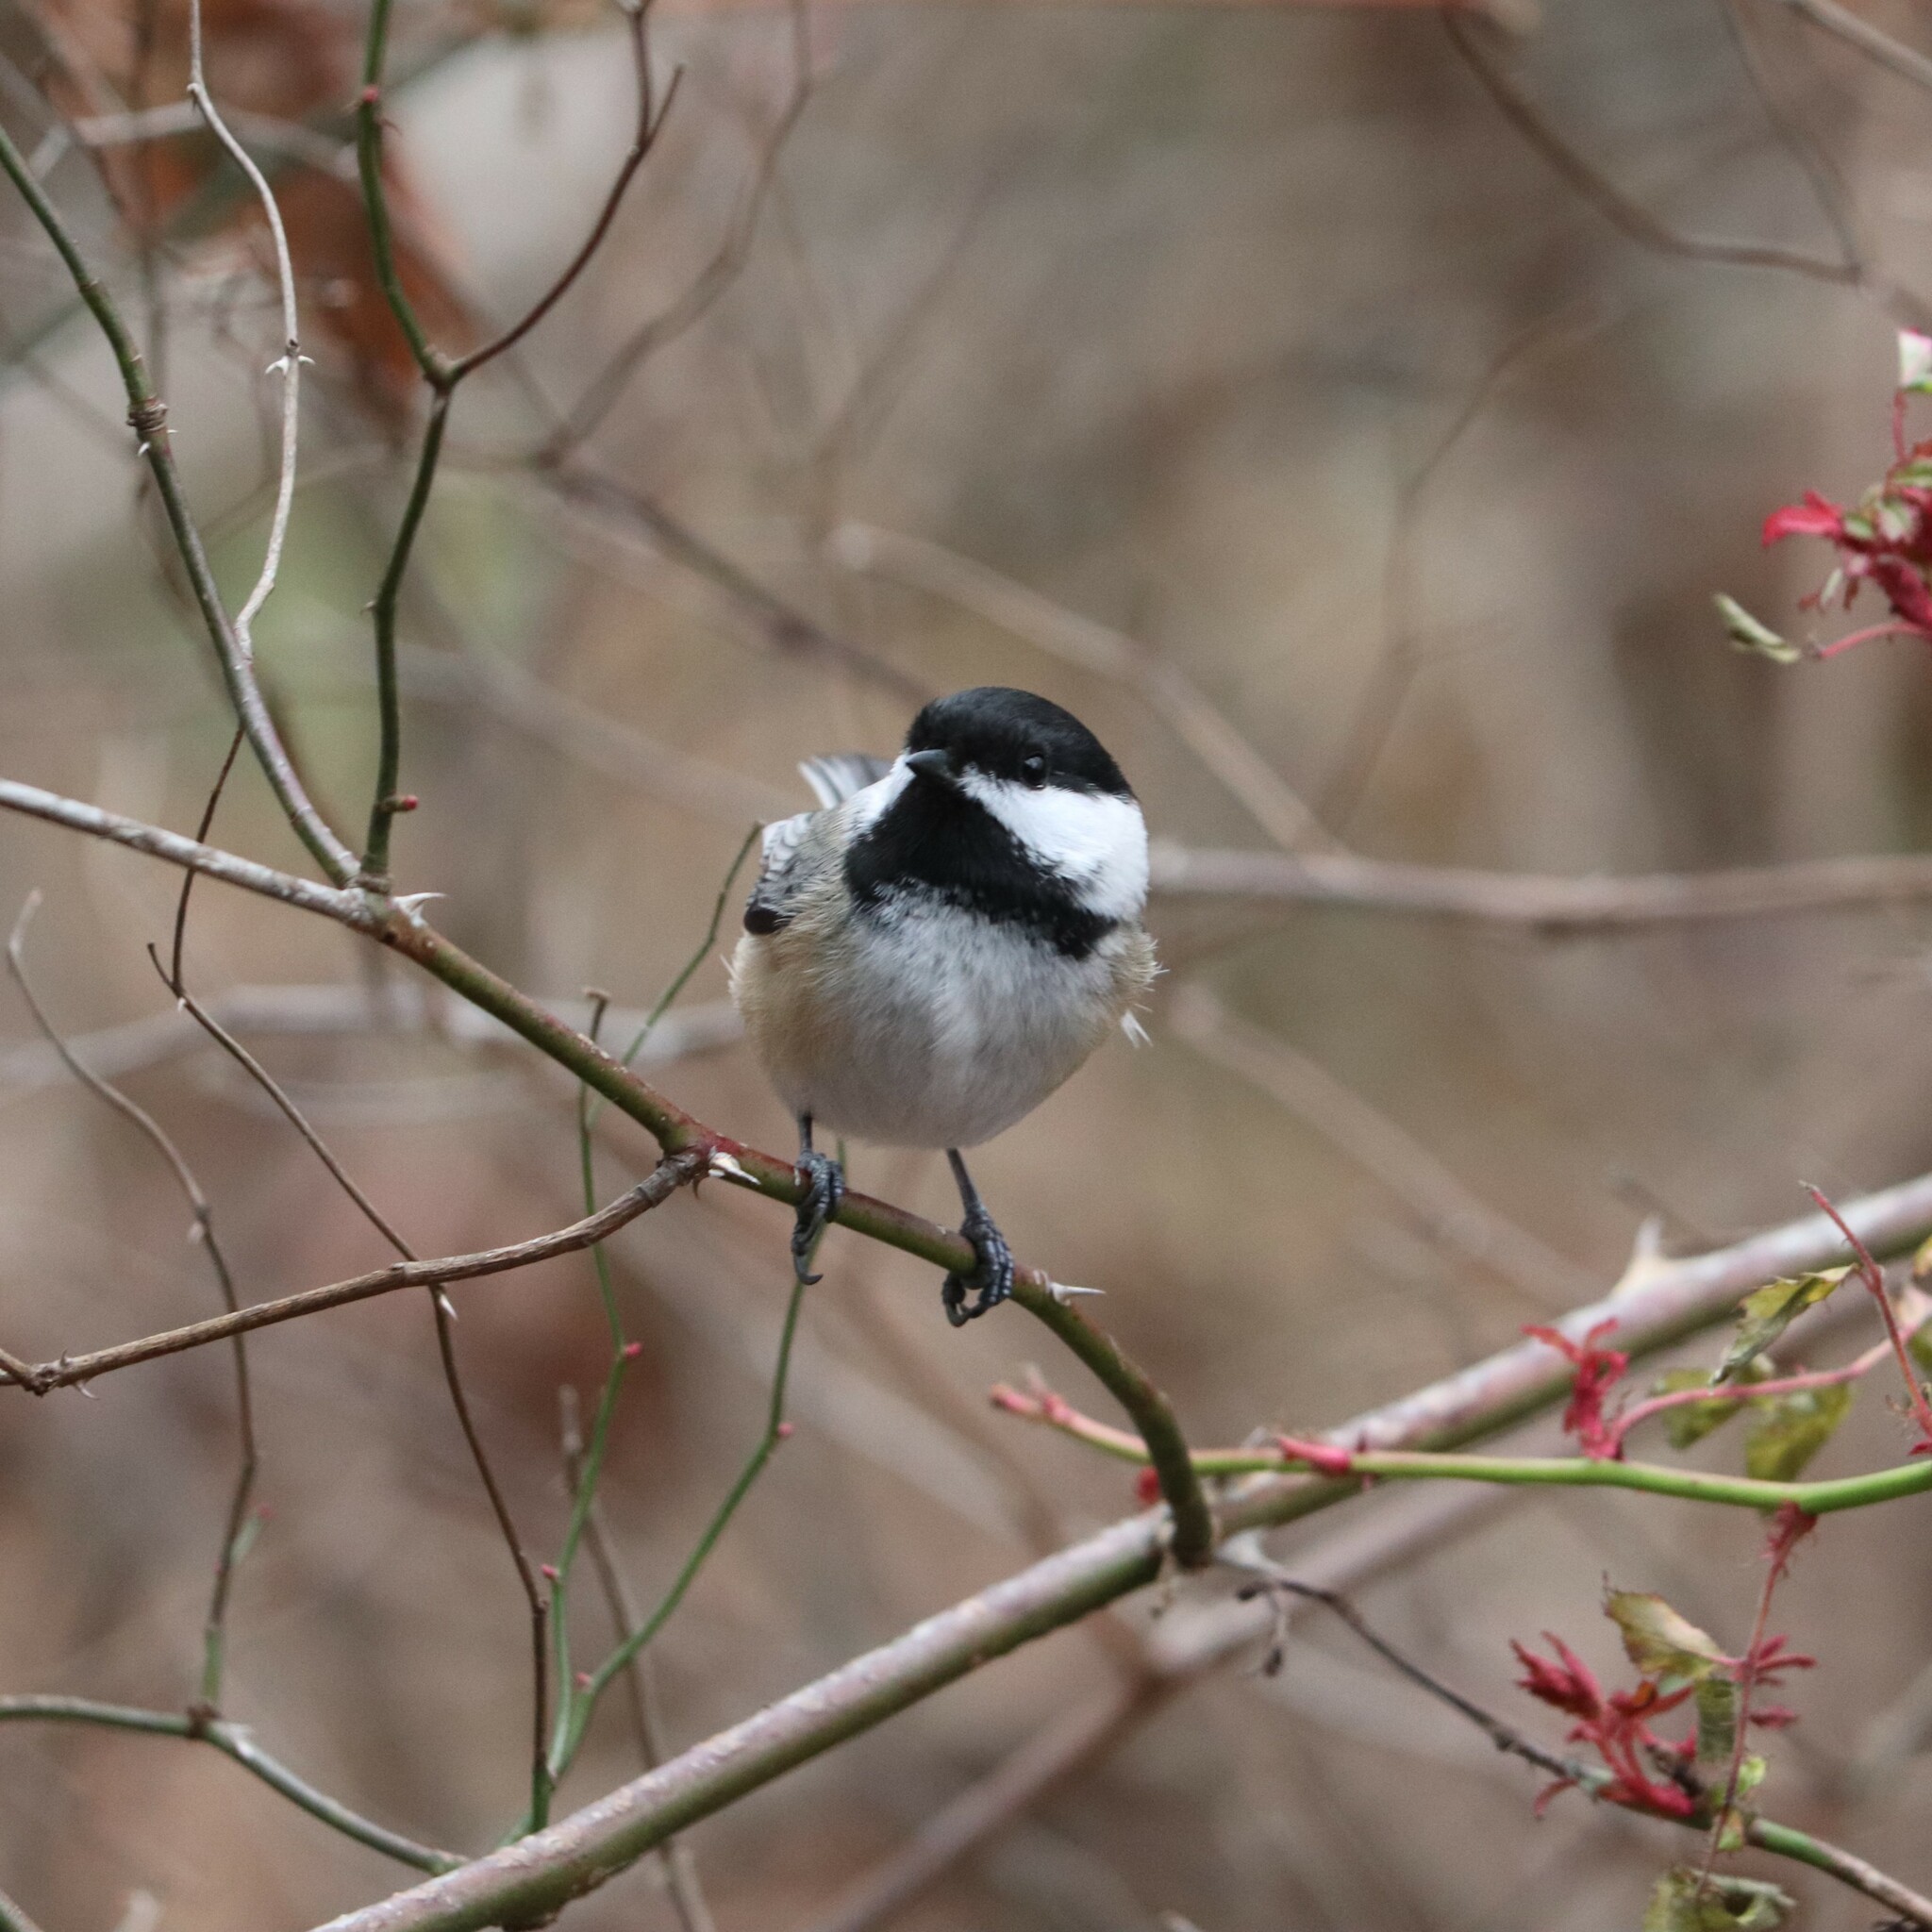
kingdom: Animalia
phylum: Chordata
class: Aves
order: Passeriformes
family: Paridae
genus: Poecile
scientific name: Poecile atricapillus
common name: Black-capped chickadee
